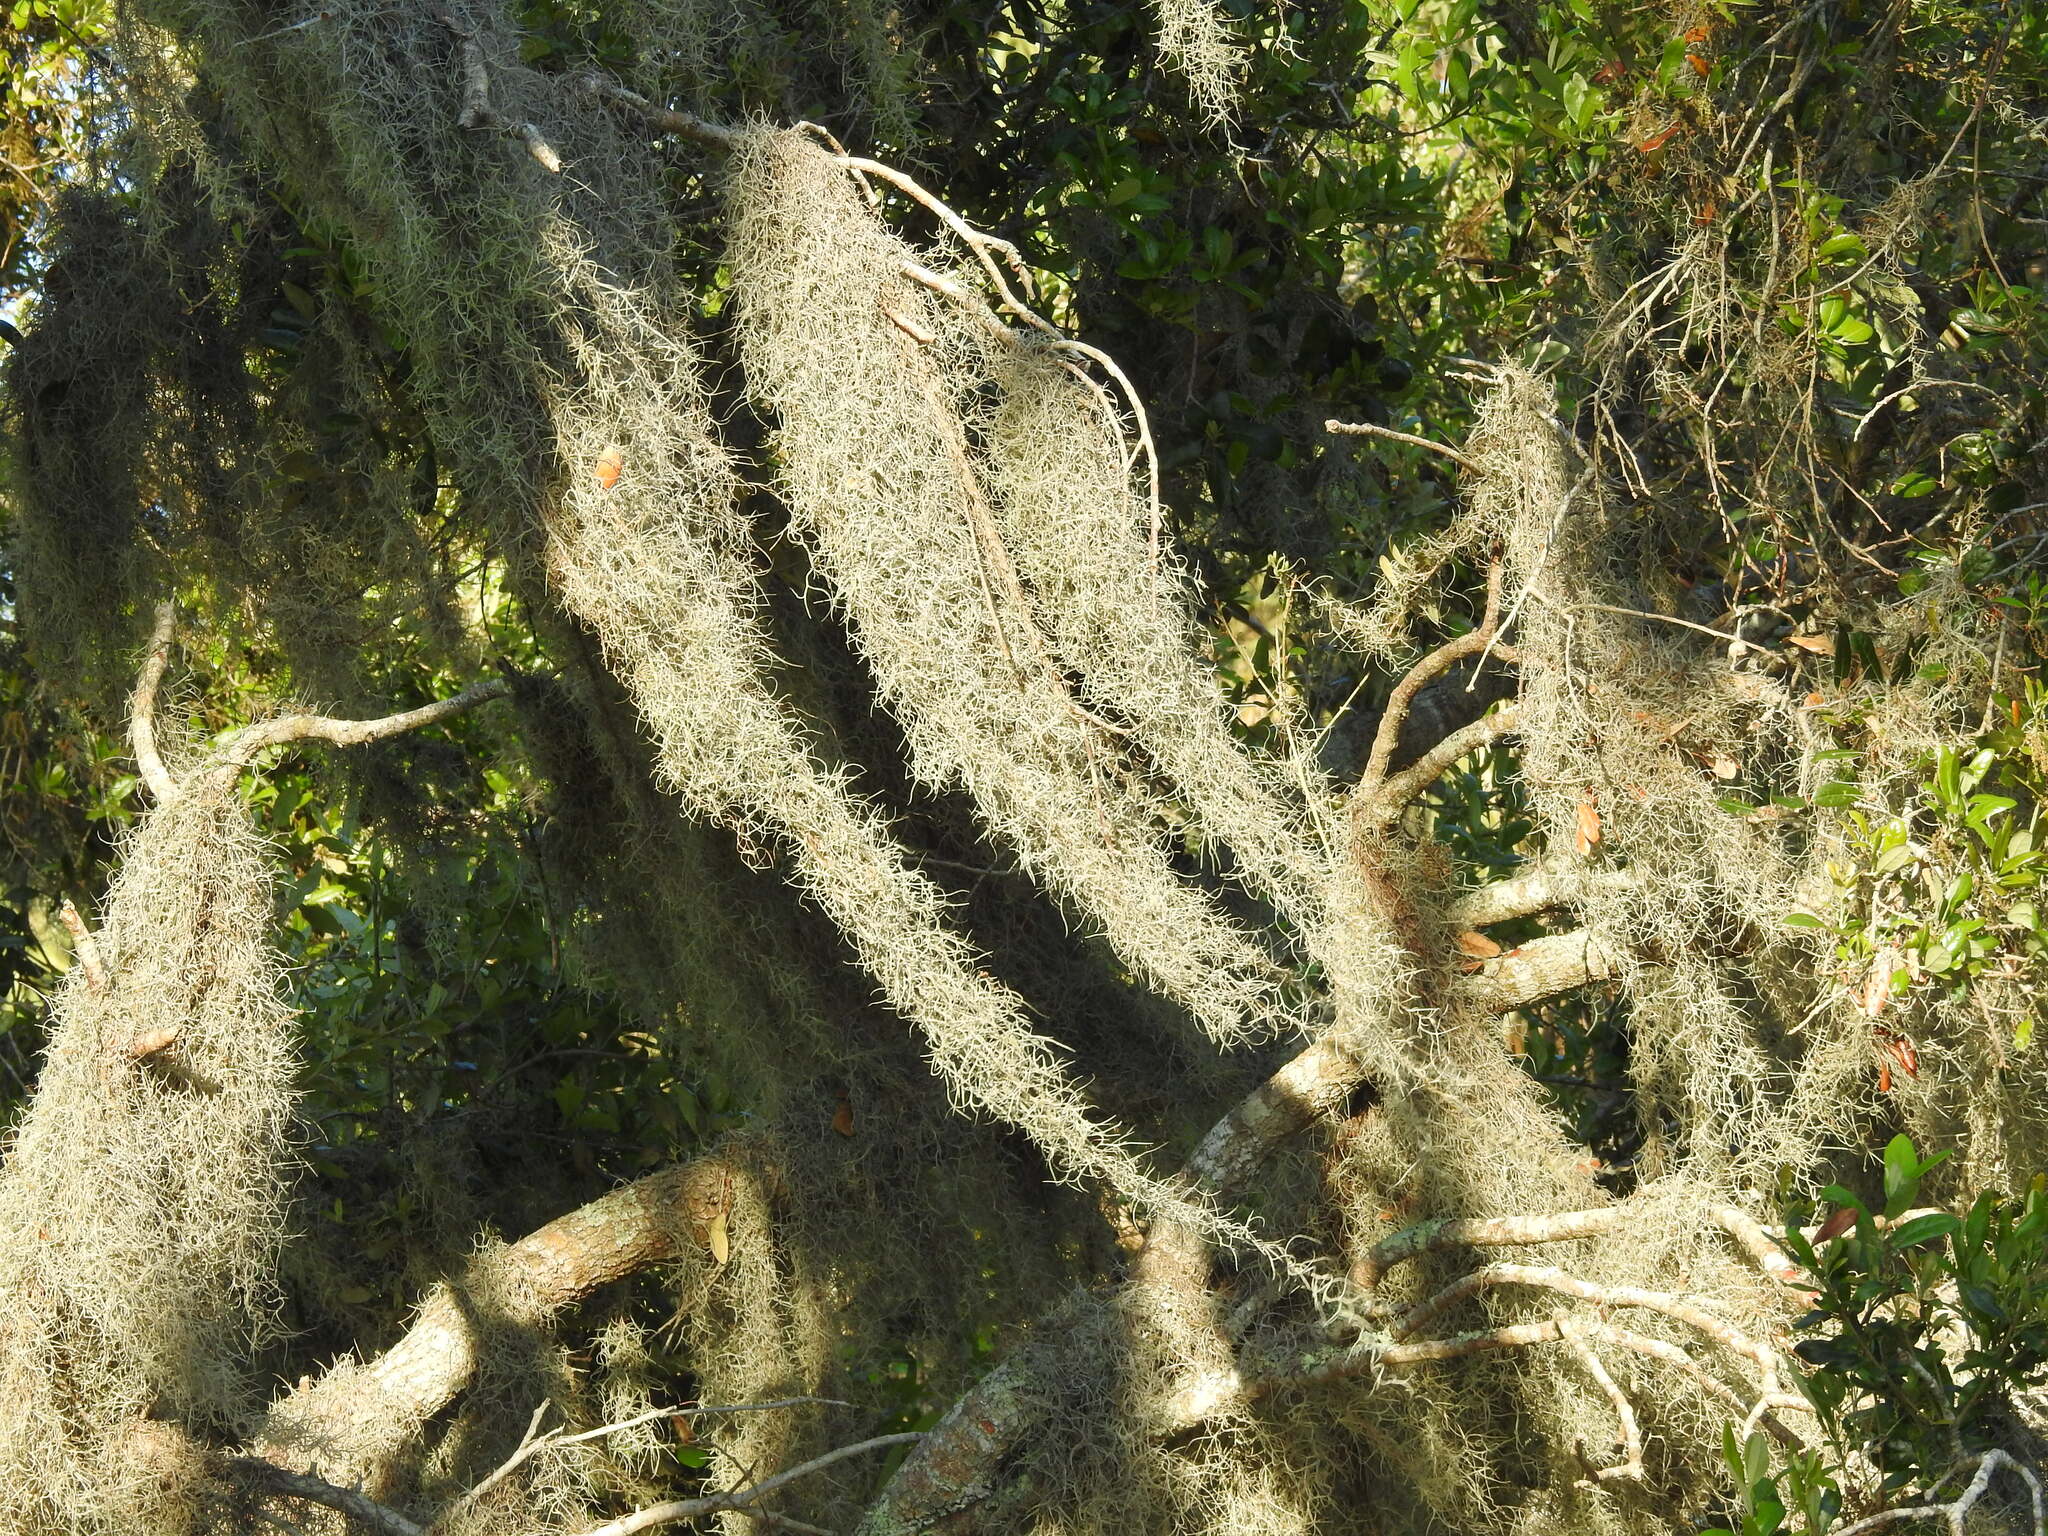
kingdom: Plantae
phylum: Tracheophyta
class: Liliopsida
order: Poales
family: Bromeliaceae
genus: Tillandsia
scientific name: Tillandsia usneoides
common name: Spanish moss
